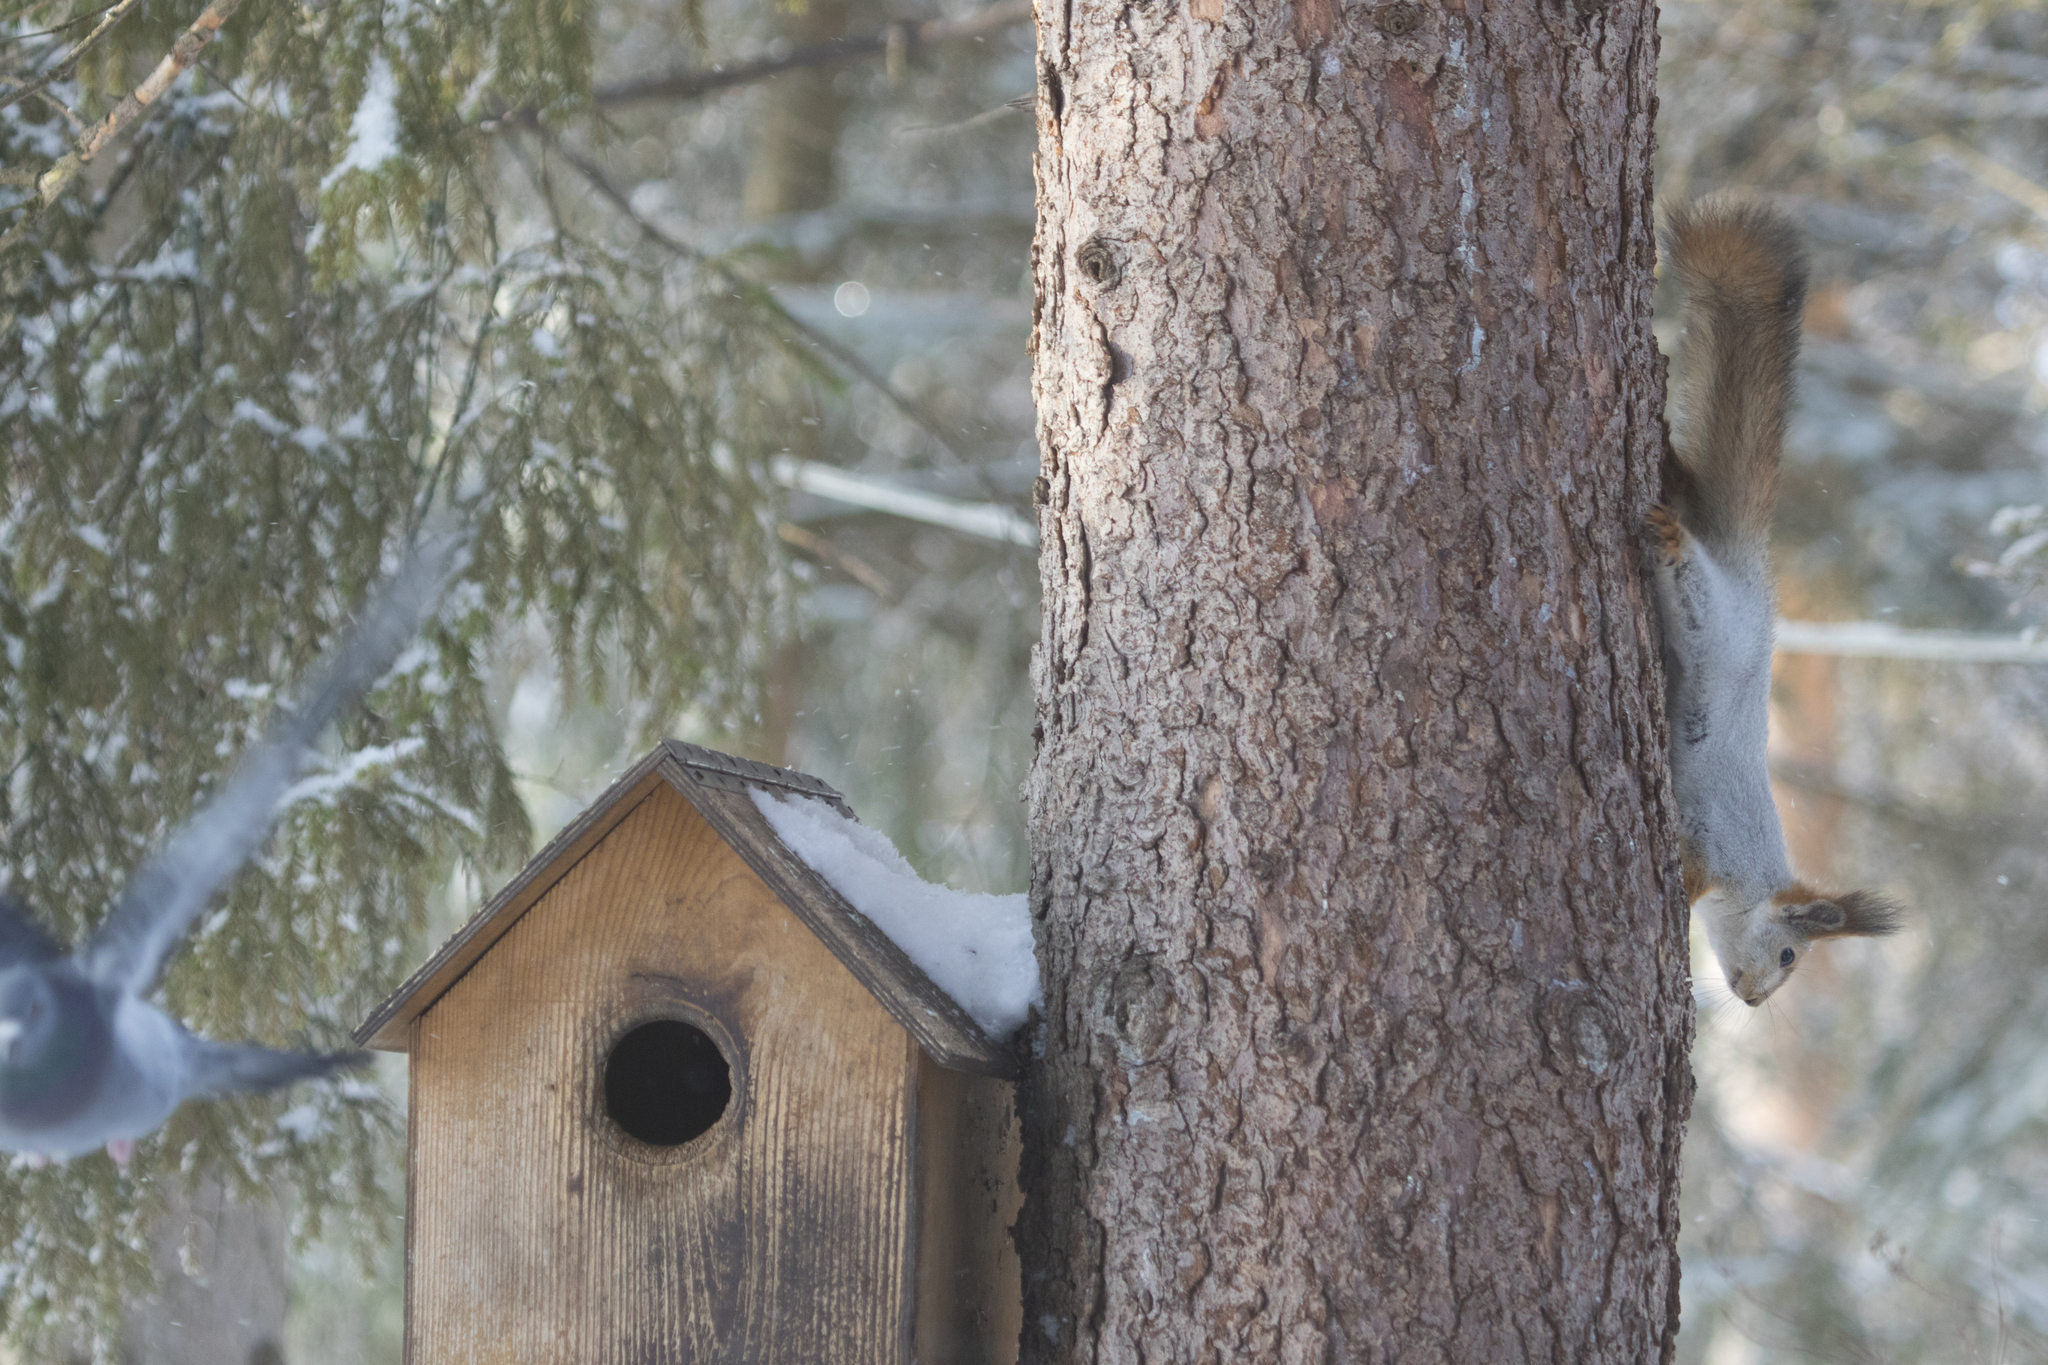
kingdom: Animalia
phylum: Chordata
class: Mammalia
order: Rodentia
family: Sciuridae
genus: Sciurus
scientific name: Sciurus vulgaris
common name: Eurasian red squirrel
